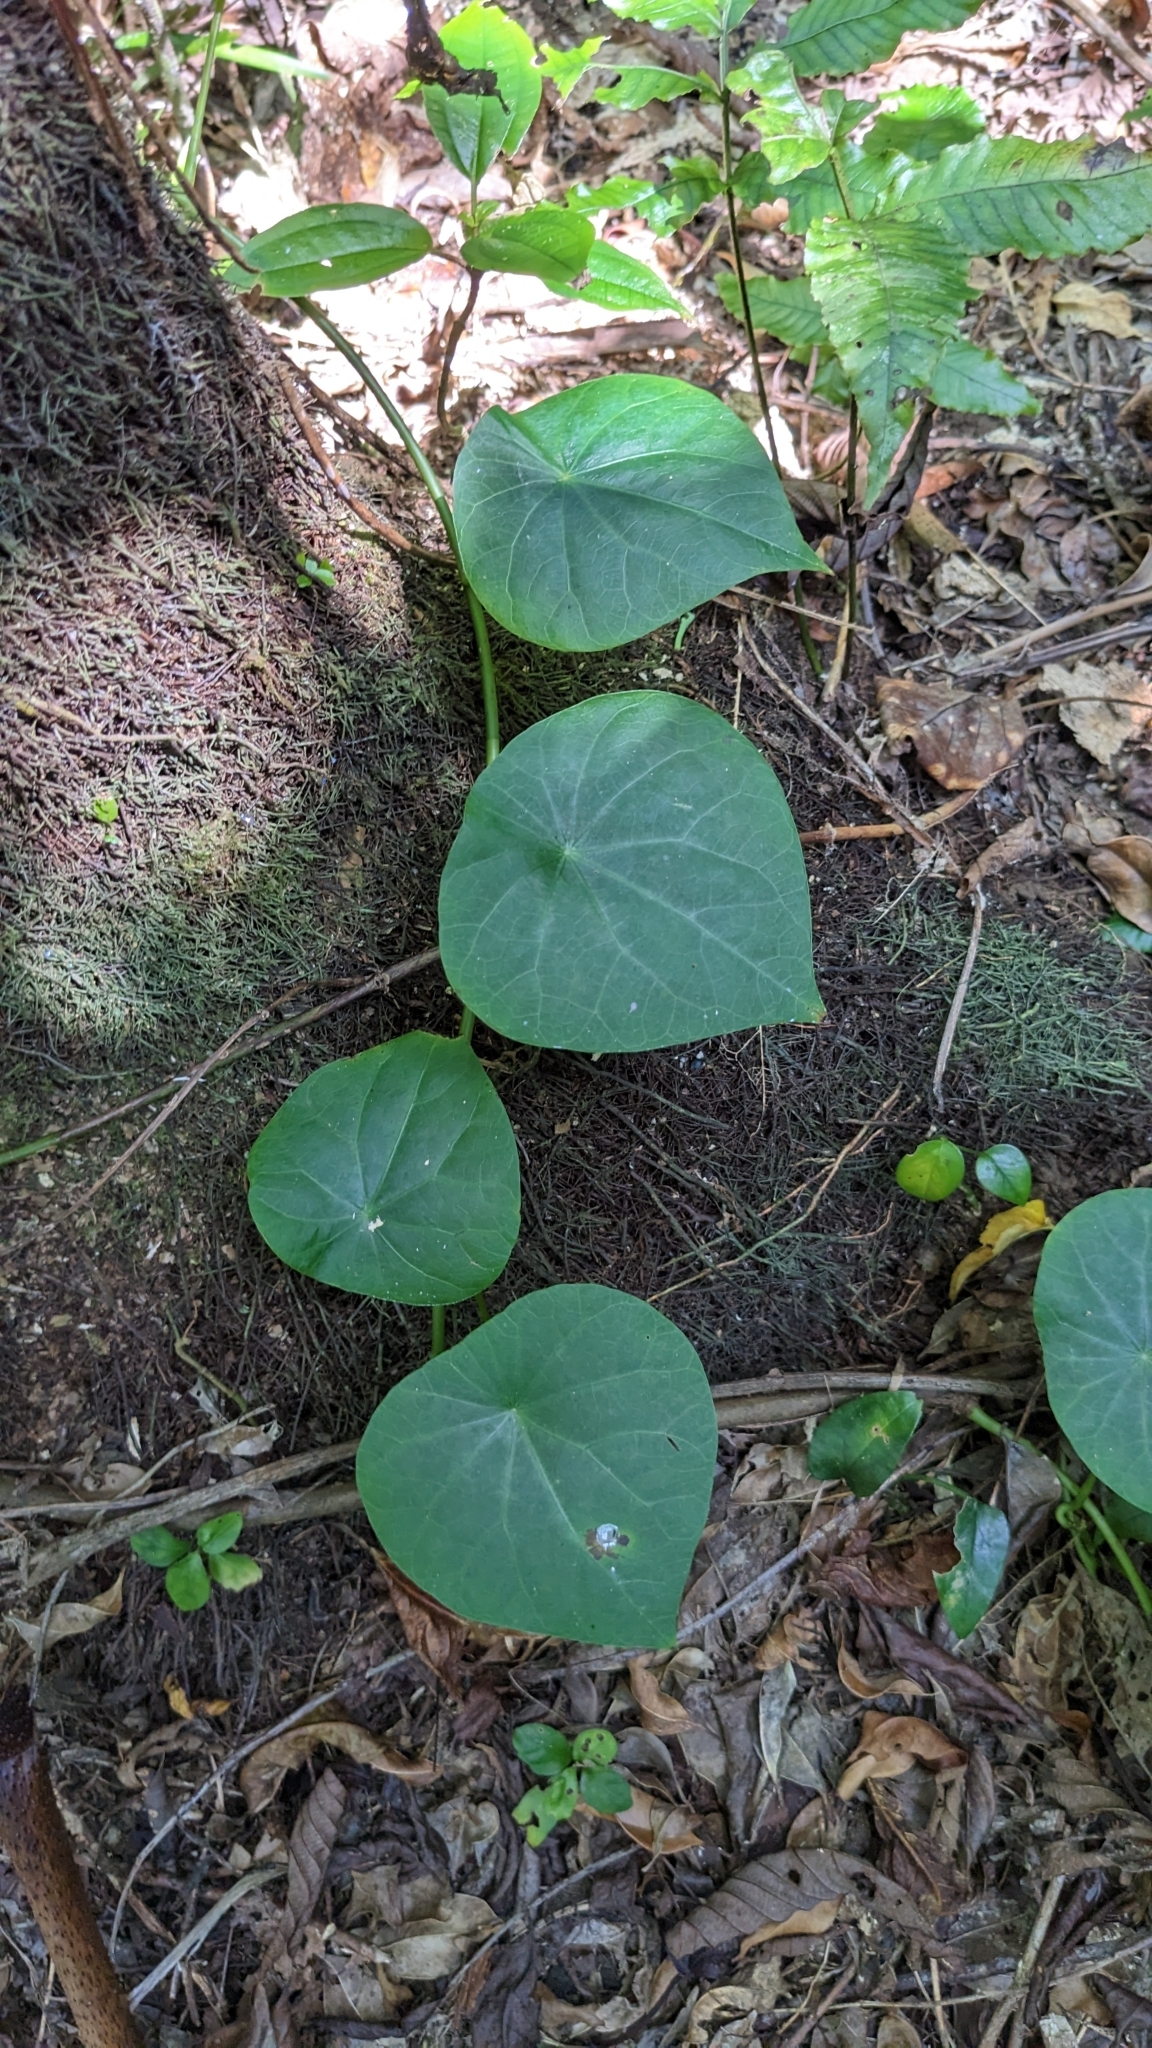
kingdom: Plantae
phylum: Tracheophyta
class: Magnoliopsida
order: Ranunculales
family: Menispermaceae
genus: Stephania
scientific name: Stephania merrillii
